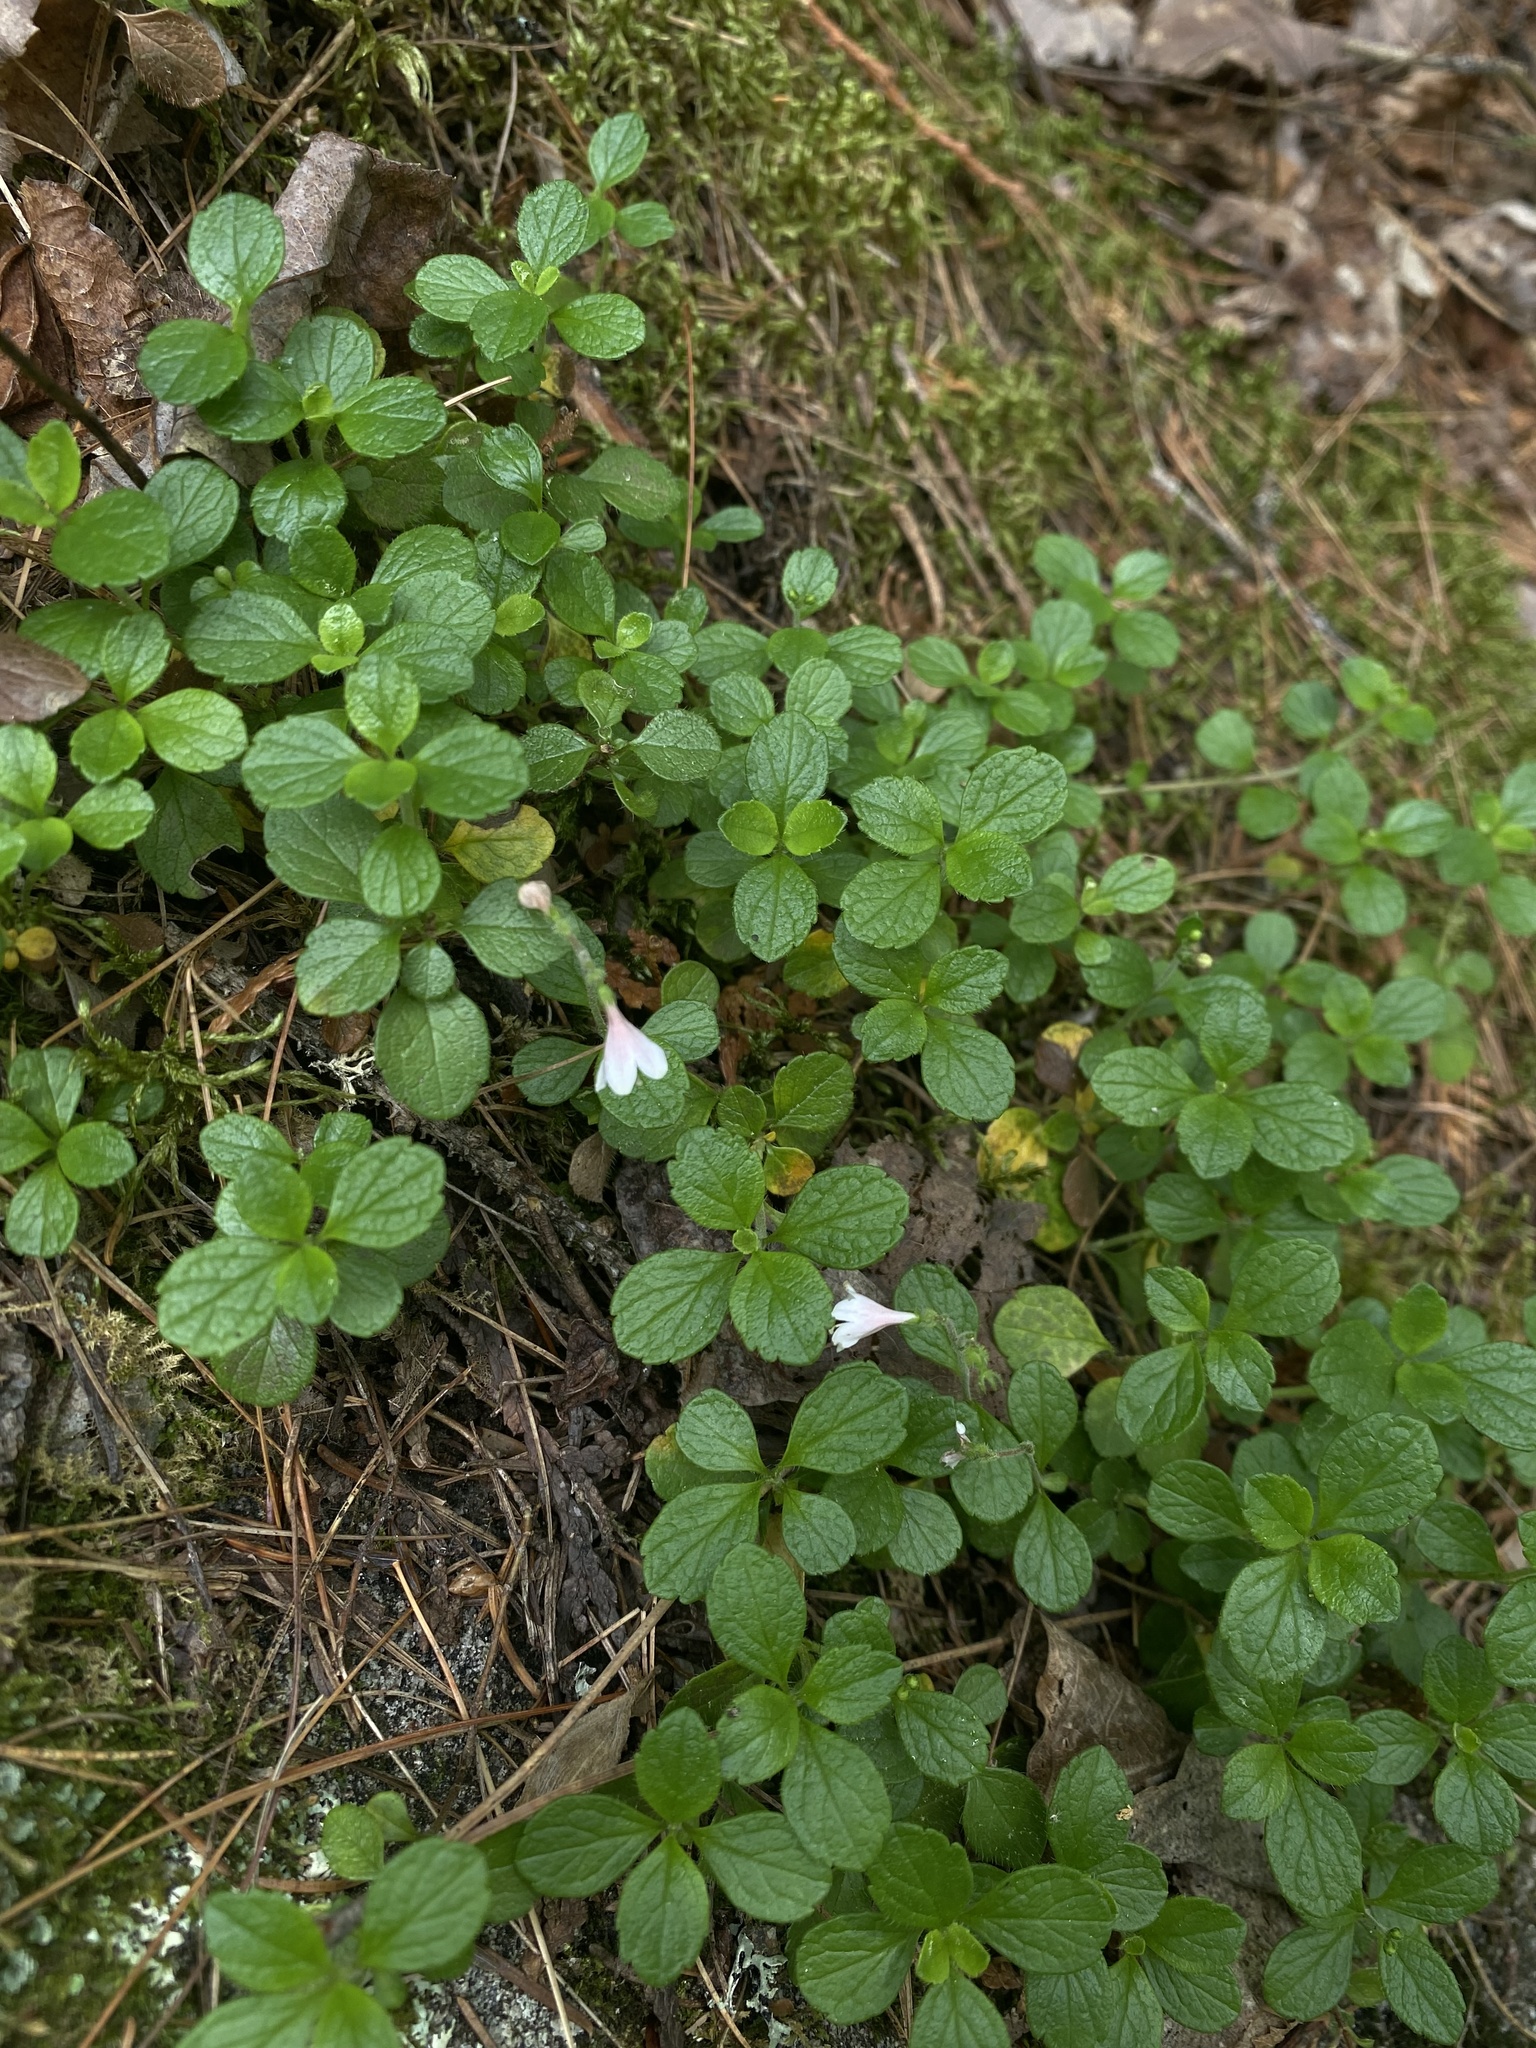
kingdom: Plantae
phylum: Tracheophyta
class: Magnoliopsida
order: Dipsacales
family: Caprifoliaceae
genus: Linnaea
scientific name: Linnaea borealis
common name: Twinflower
